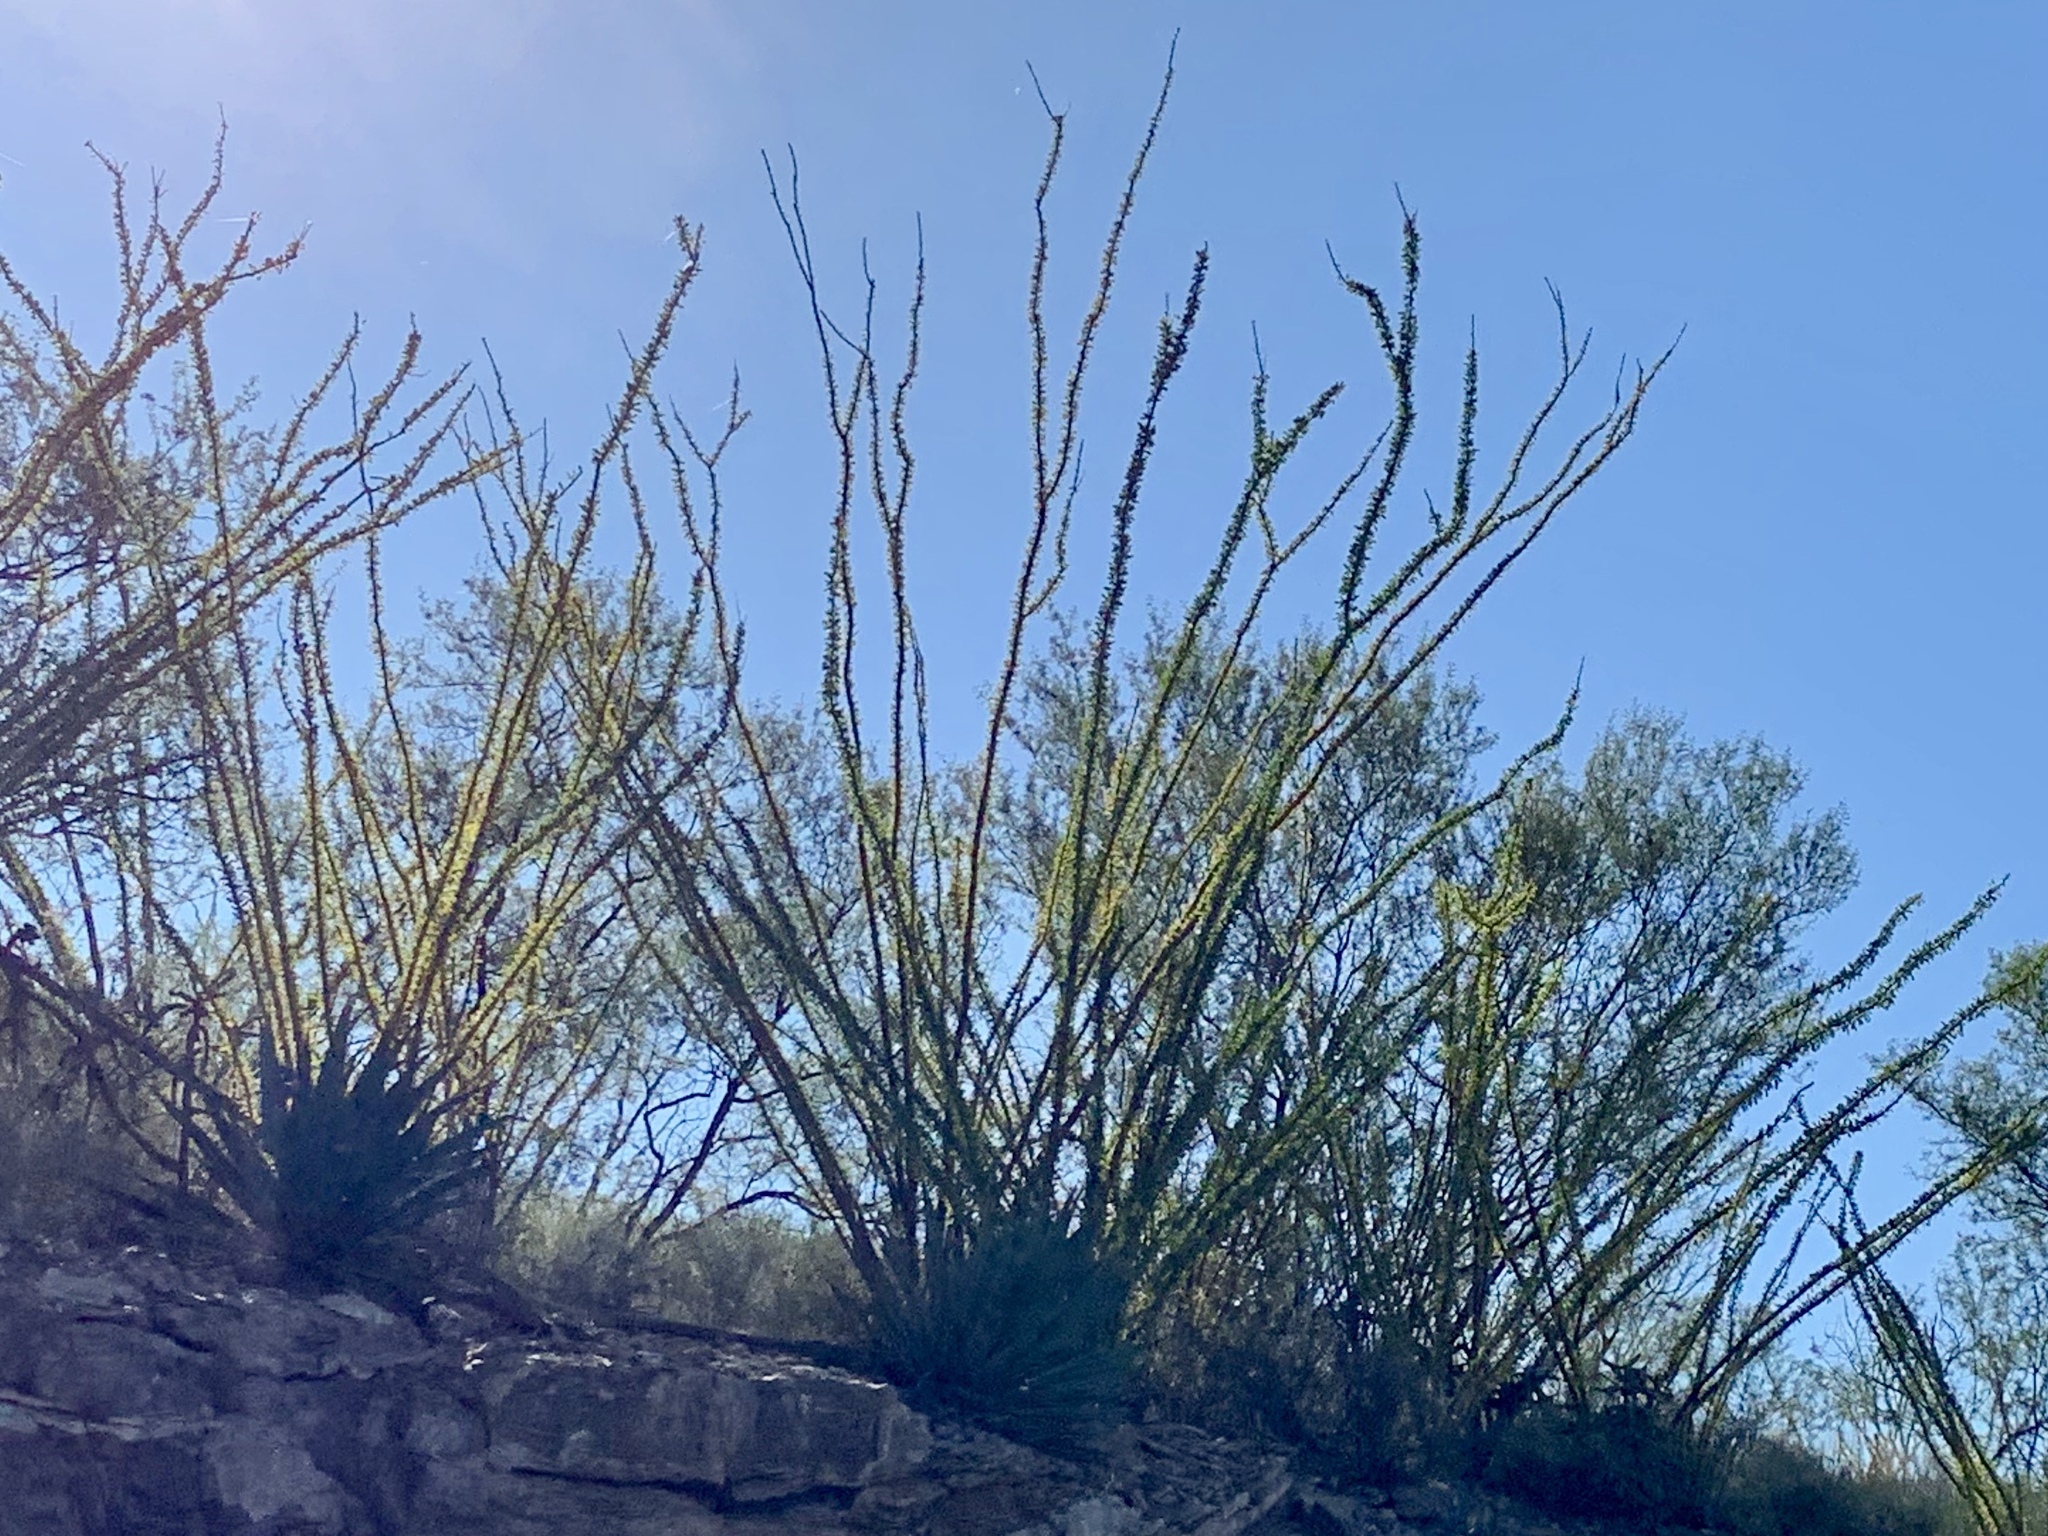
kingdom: Plantae
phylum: Tracheophyta
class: Magnoliopsida
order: Ericales
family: Fouquieriaceae
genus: Fouquieria
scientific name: Fouquieria splendens
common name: Vine-cactus
